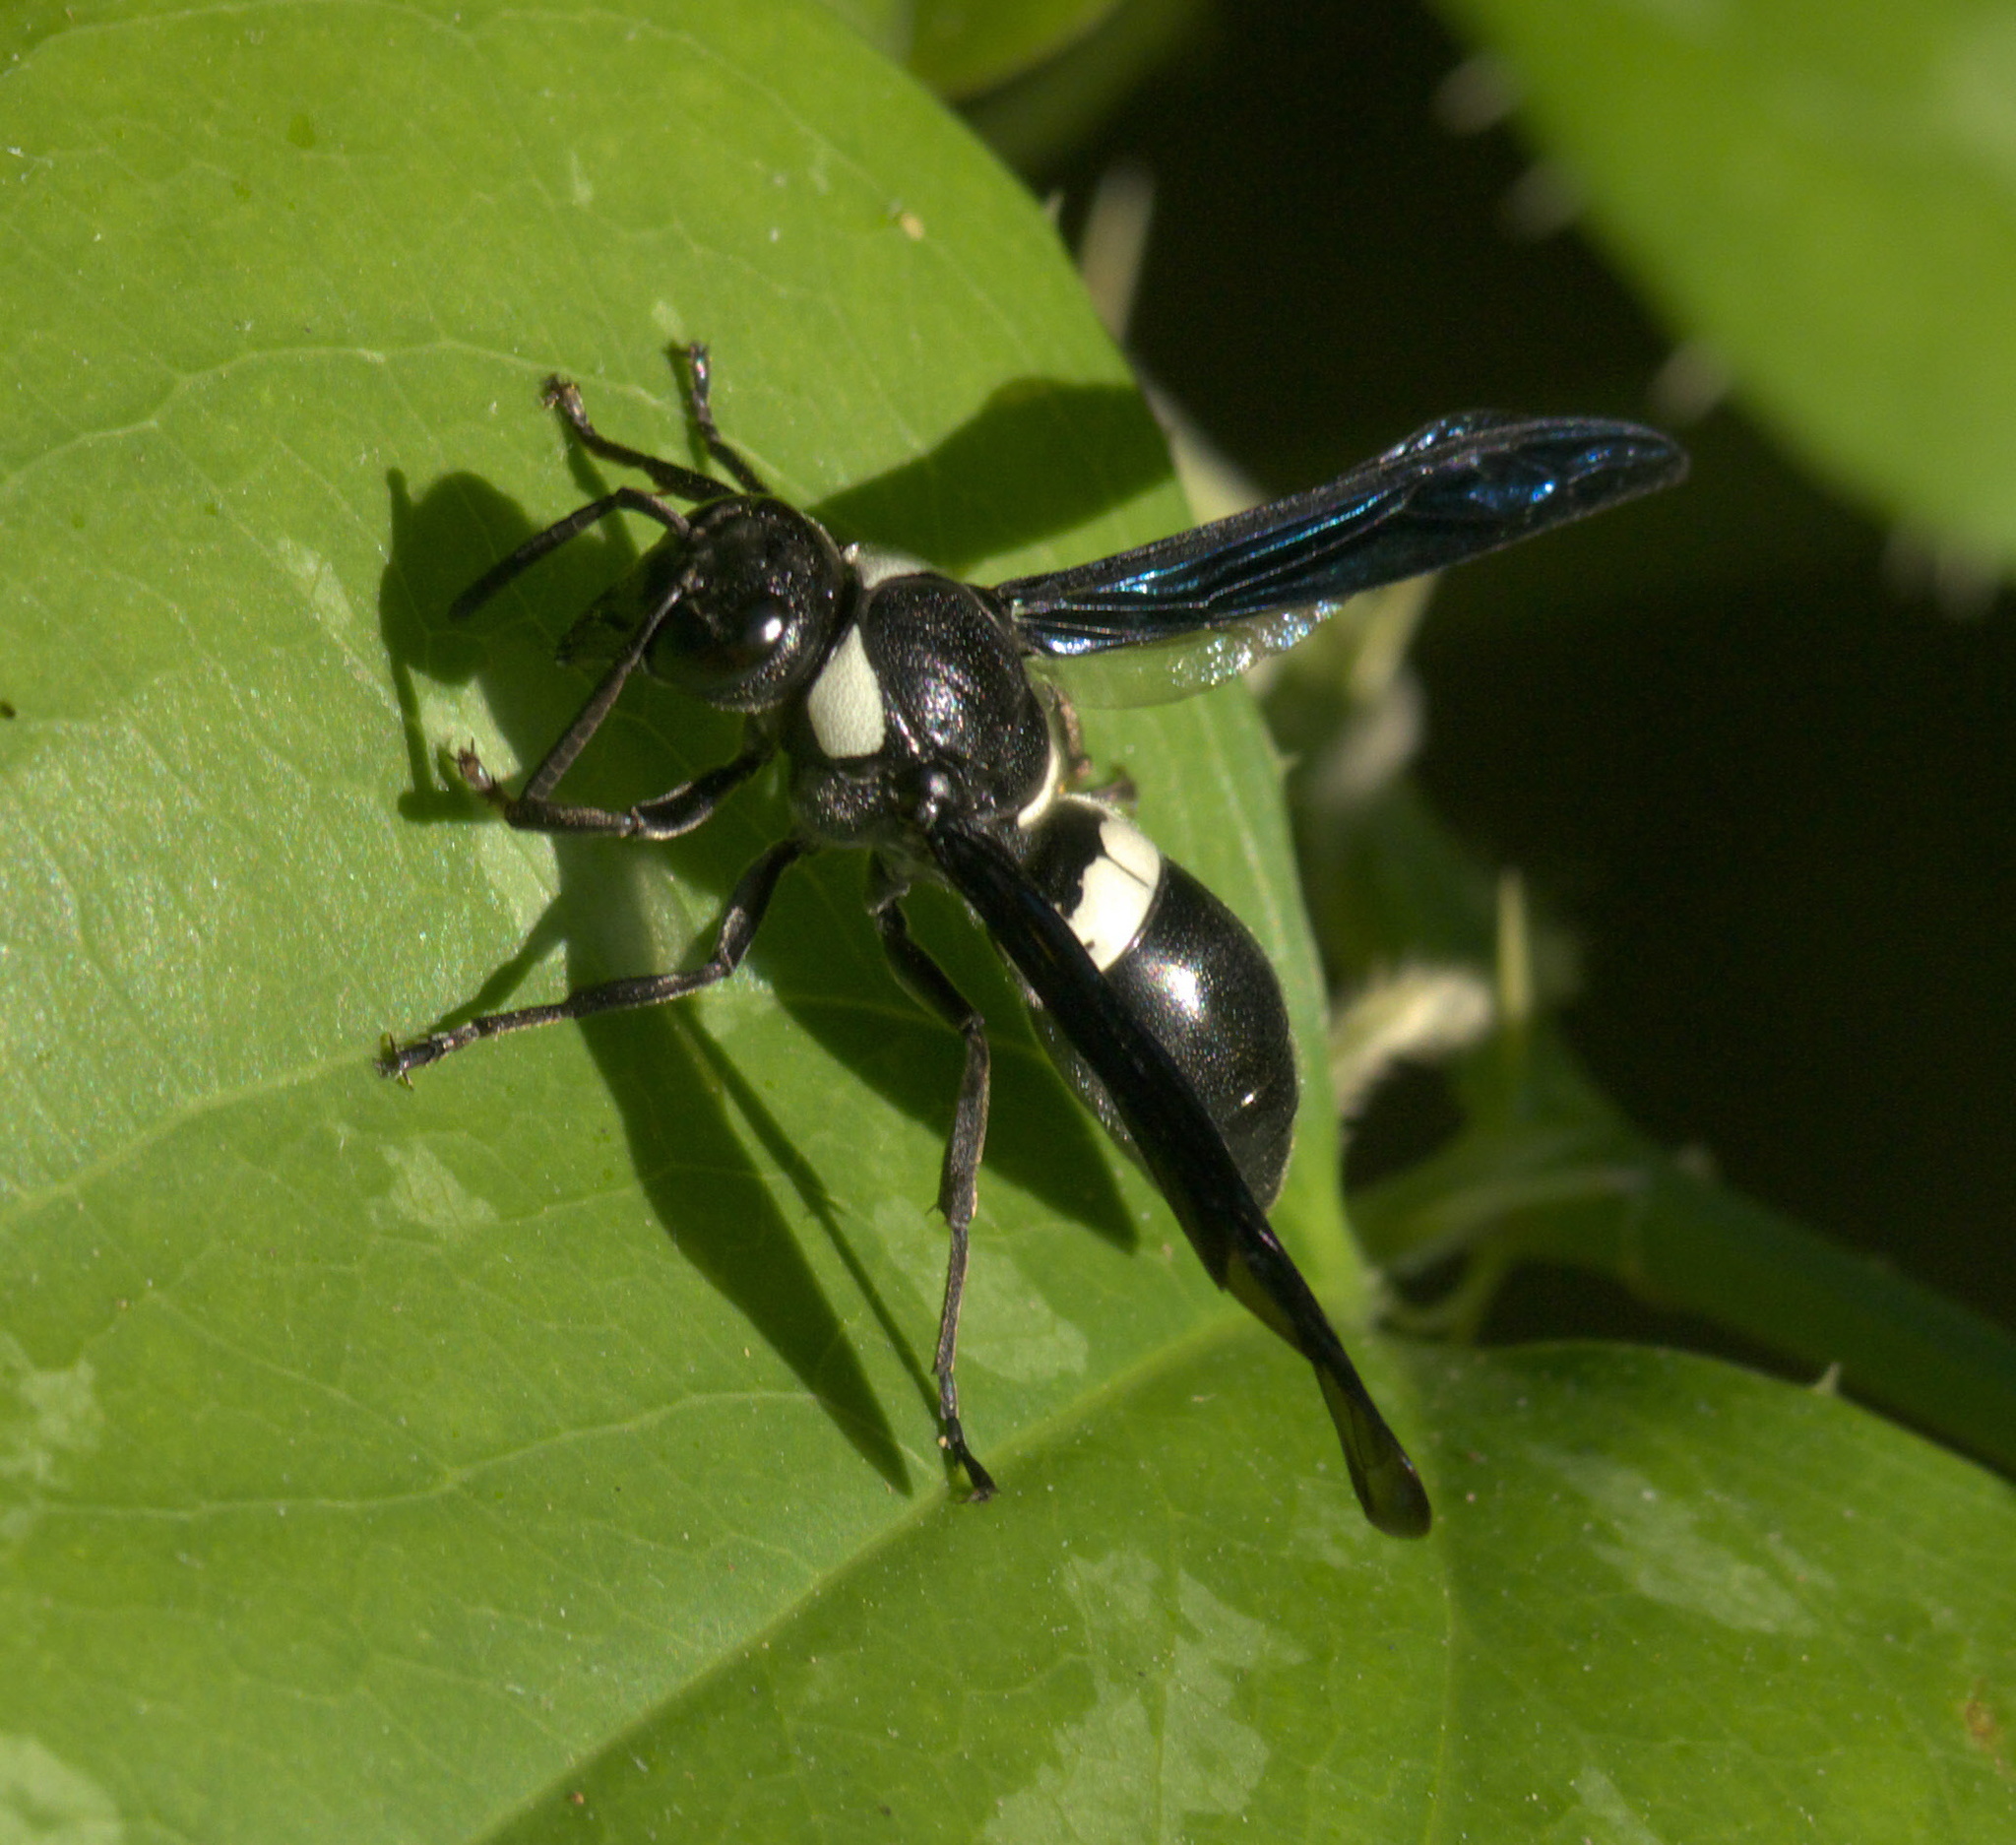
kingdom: Animalia
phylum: Arthropoda
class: Insecta
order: Hymenoptera
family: Eumenidae
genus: Monobia
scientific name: Monobia quadridens
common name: Four-toothed mason wasp
